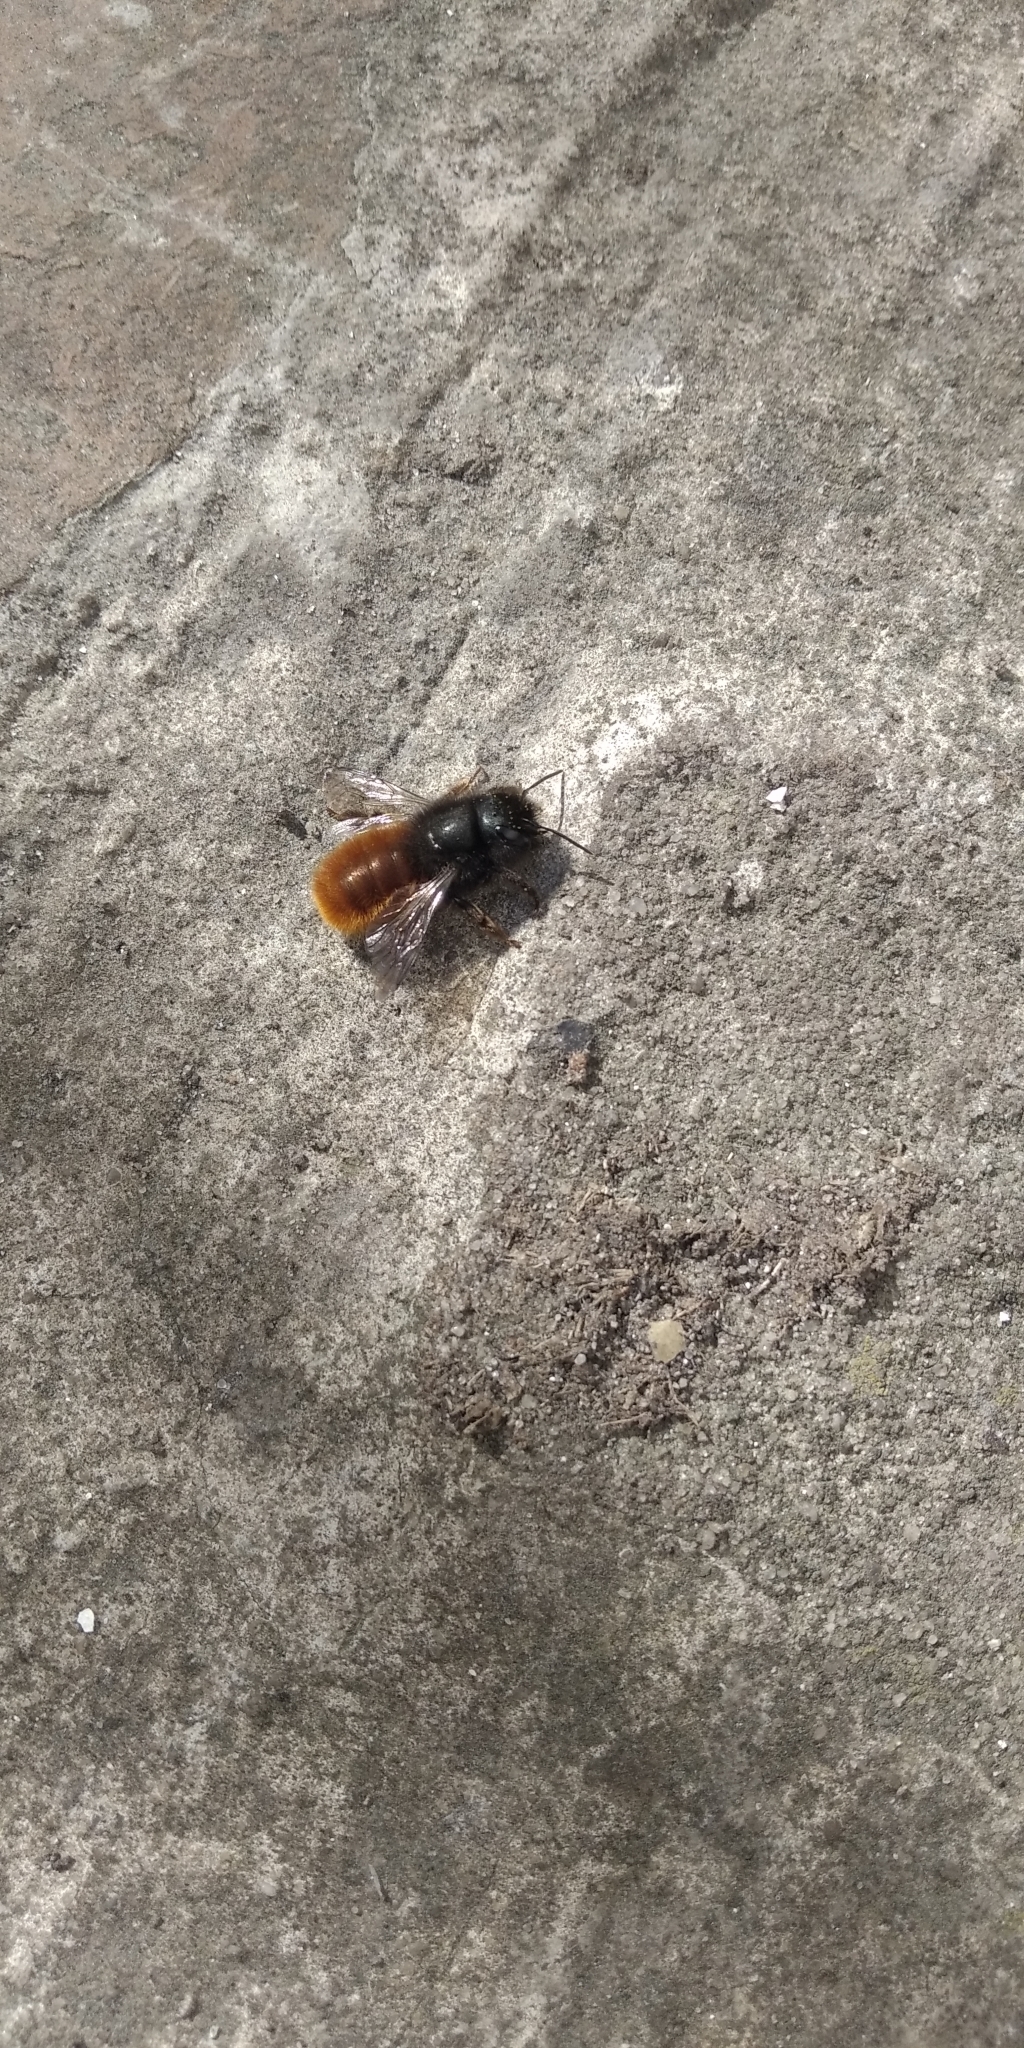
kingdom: Animalia
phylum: Arthropoda
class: Insecta
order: Hymenoptera
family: Megachilidae
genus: Osmia
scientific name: Osmia cornuta
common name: Mason bee
